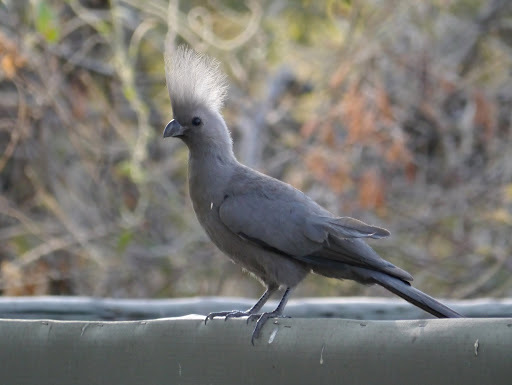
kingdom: Animalia
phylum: Chordata
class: Aves
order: Musophagiformes
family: Musophagidae
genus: Corythaixoides
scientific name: Corythaixoides concolor
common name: Grey go-away-bird
